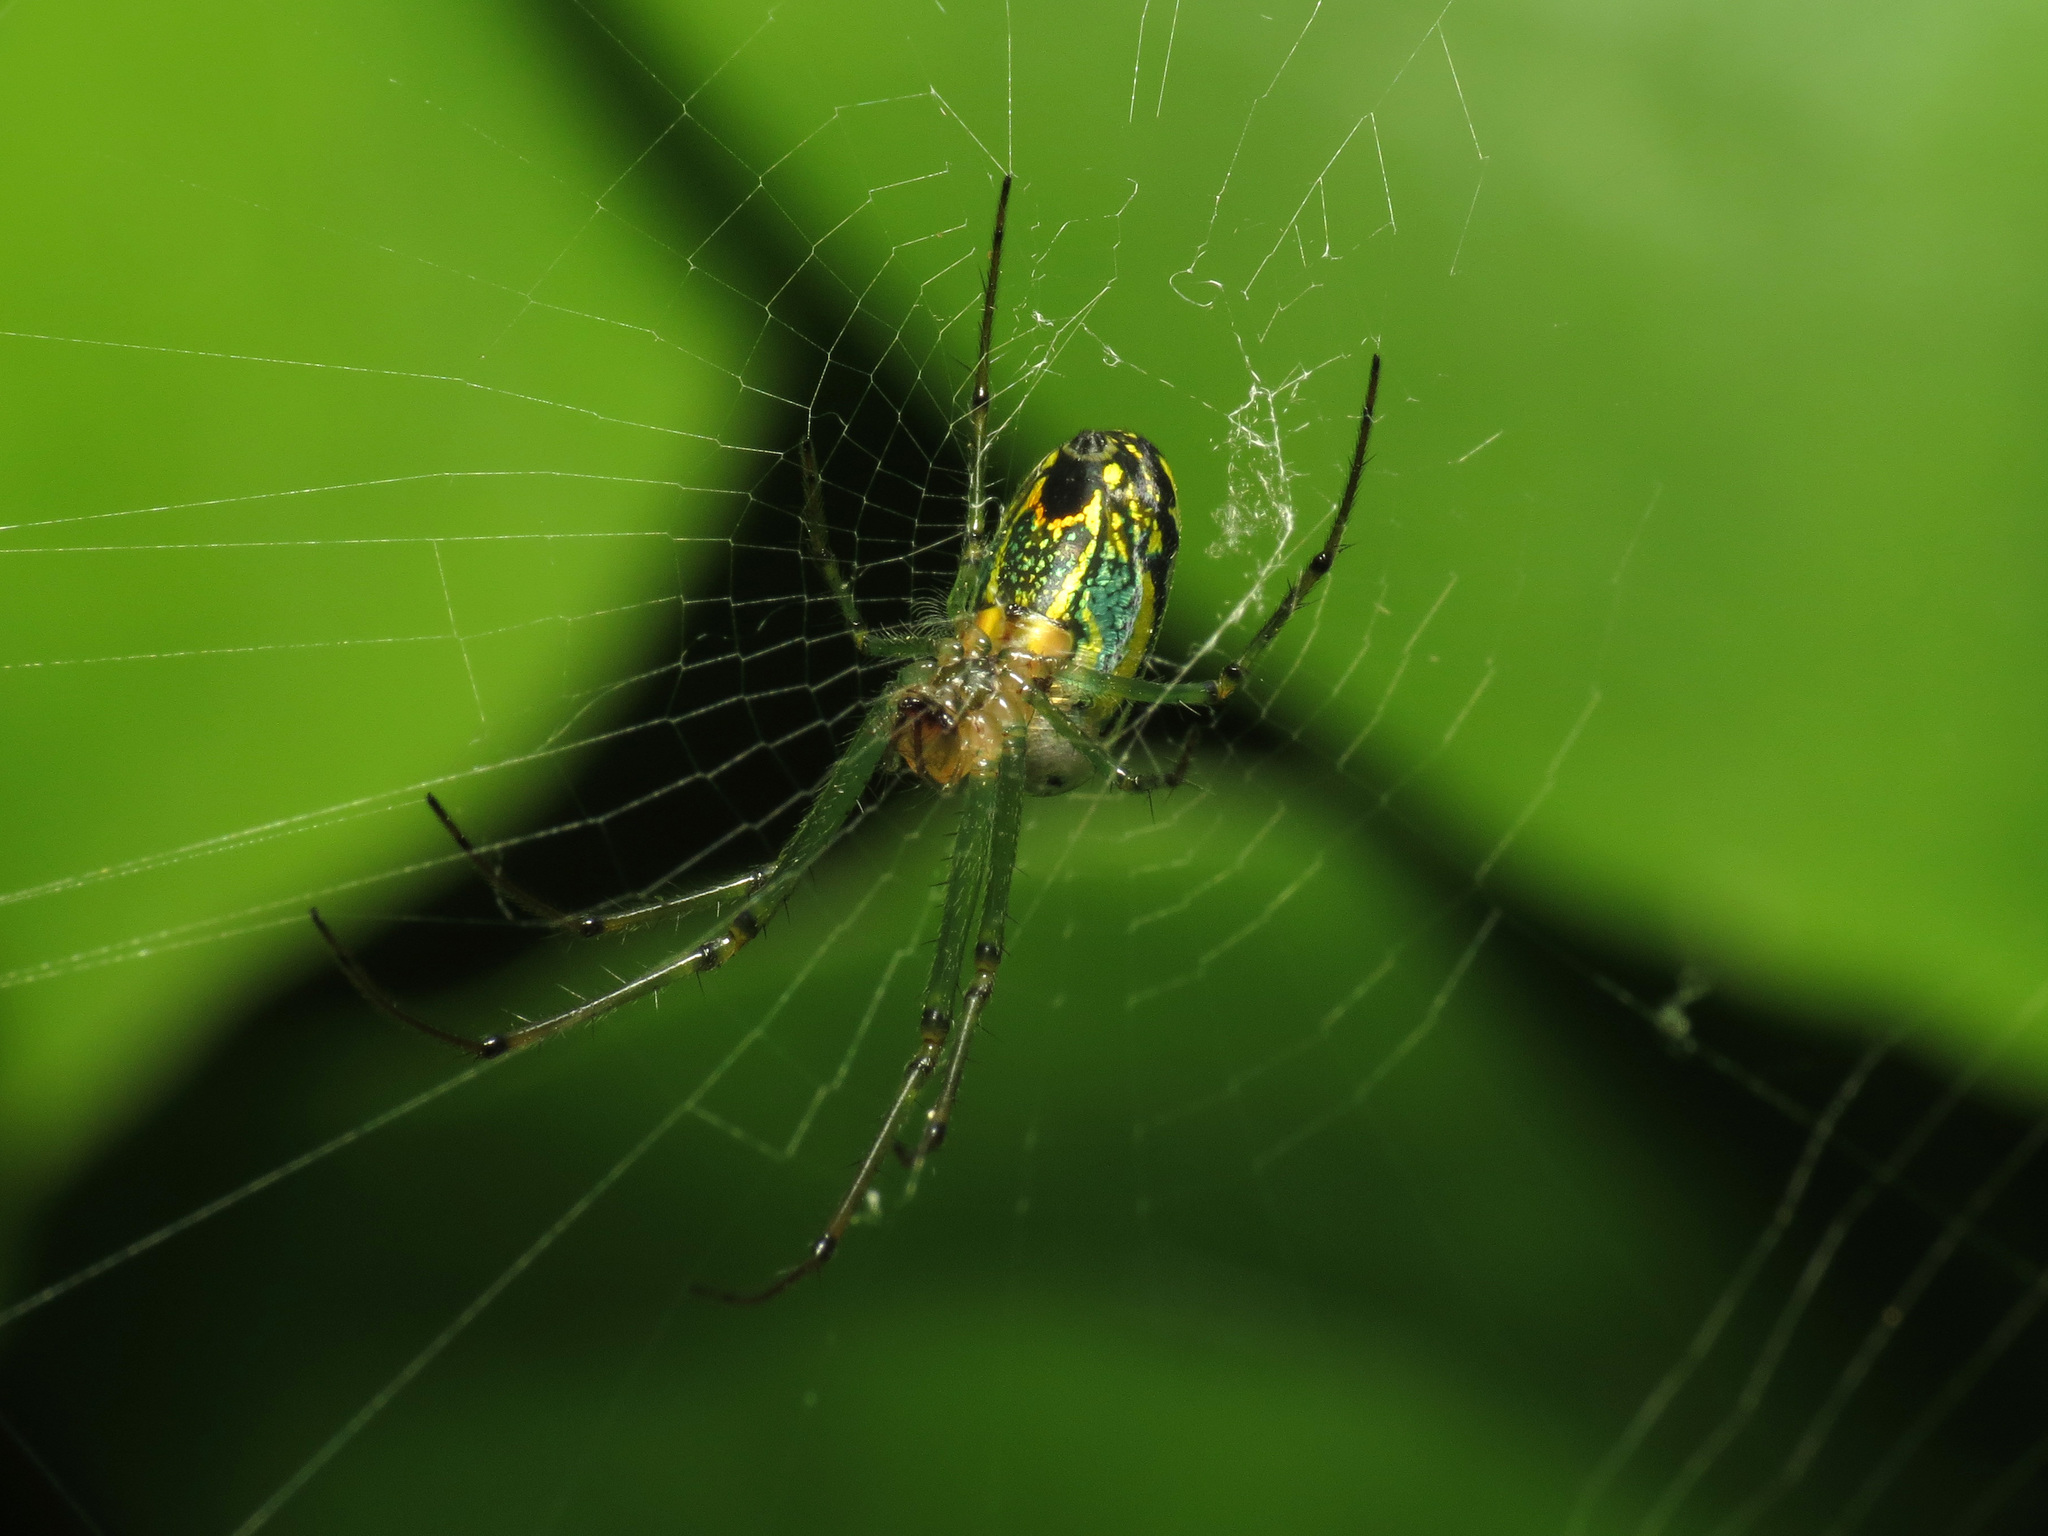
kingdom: Animalia
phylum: Arthropoda
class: Arachnida
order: Araneae
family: Tetragnathidae
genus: Leucauge
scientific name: Leucauge venusta
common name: Longjawed orb weavers
